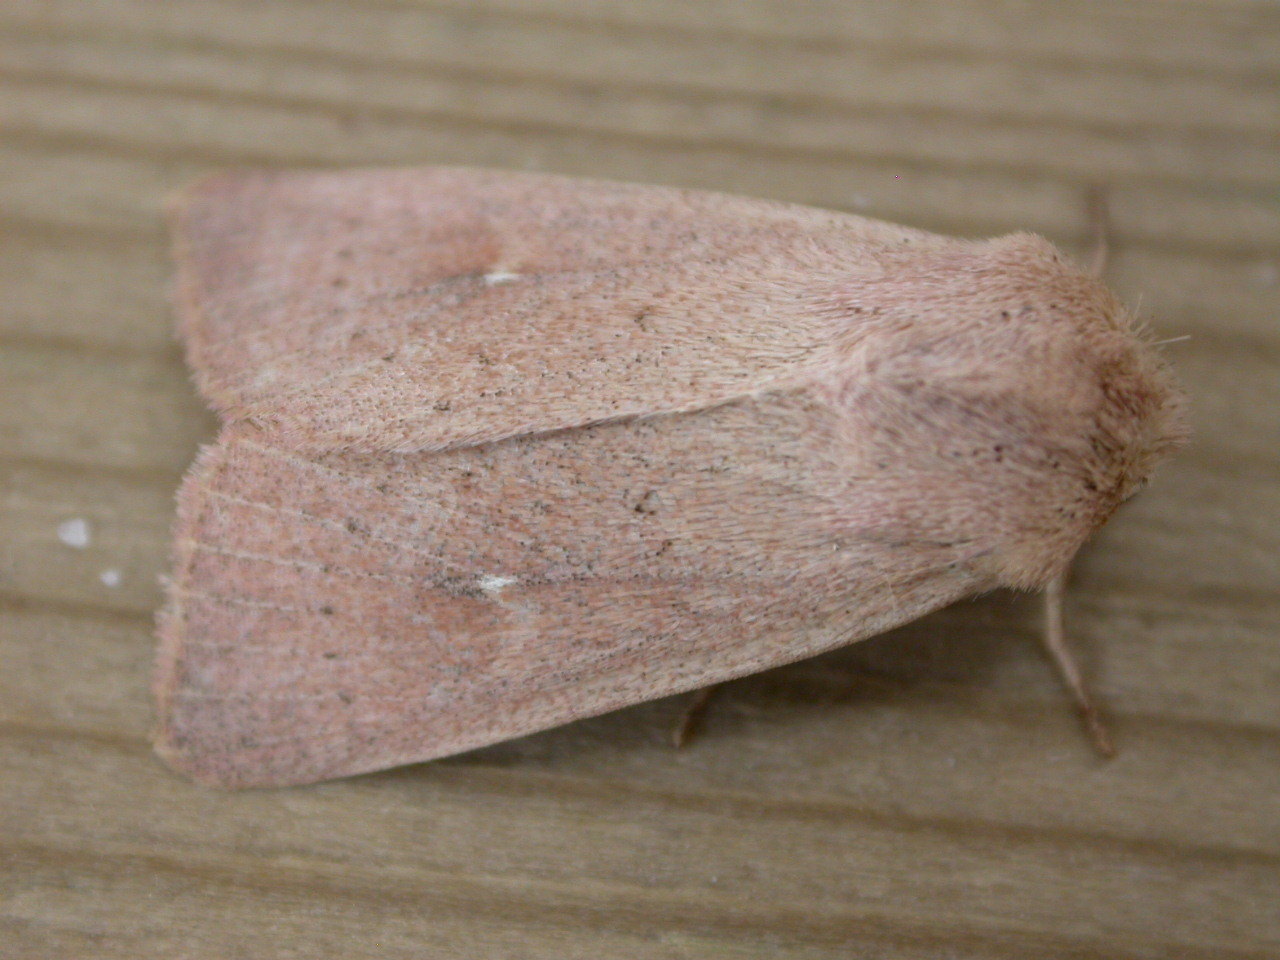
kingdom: Animalia
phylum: Arthropoda
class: Insecta
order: Lepidoptera
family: Noctuidae
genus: Mythimna
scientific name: Mythimna ferrago
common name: Clay
